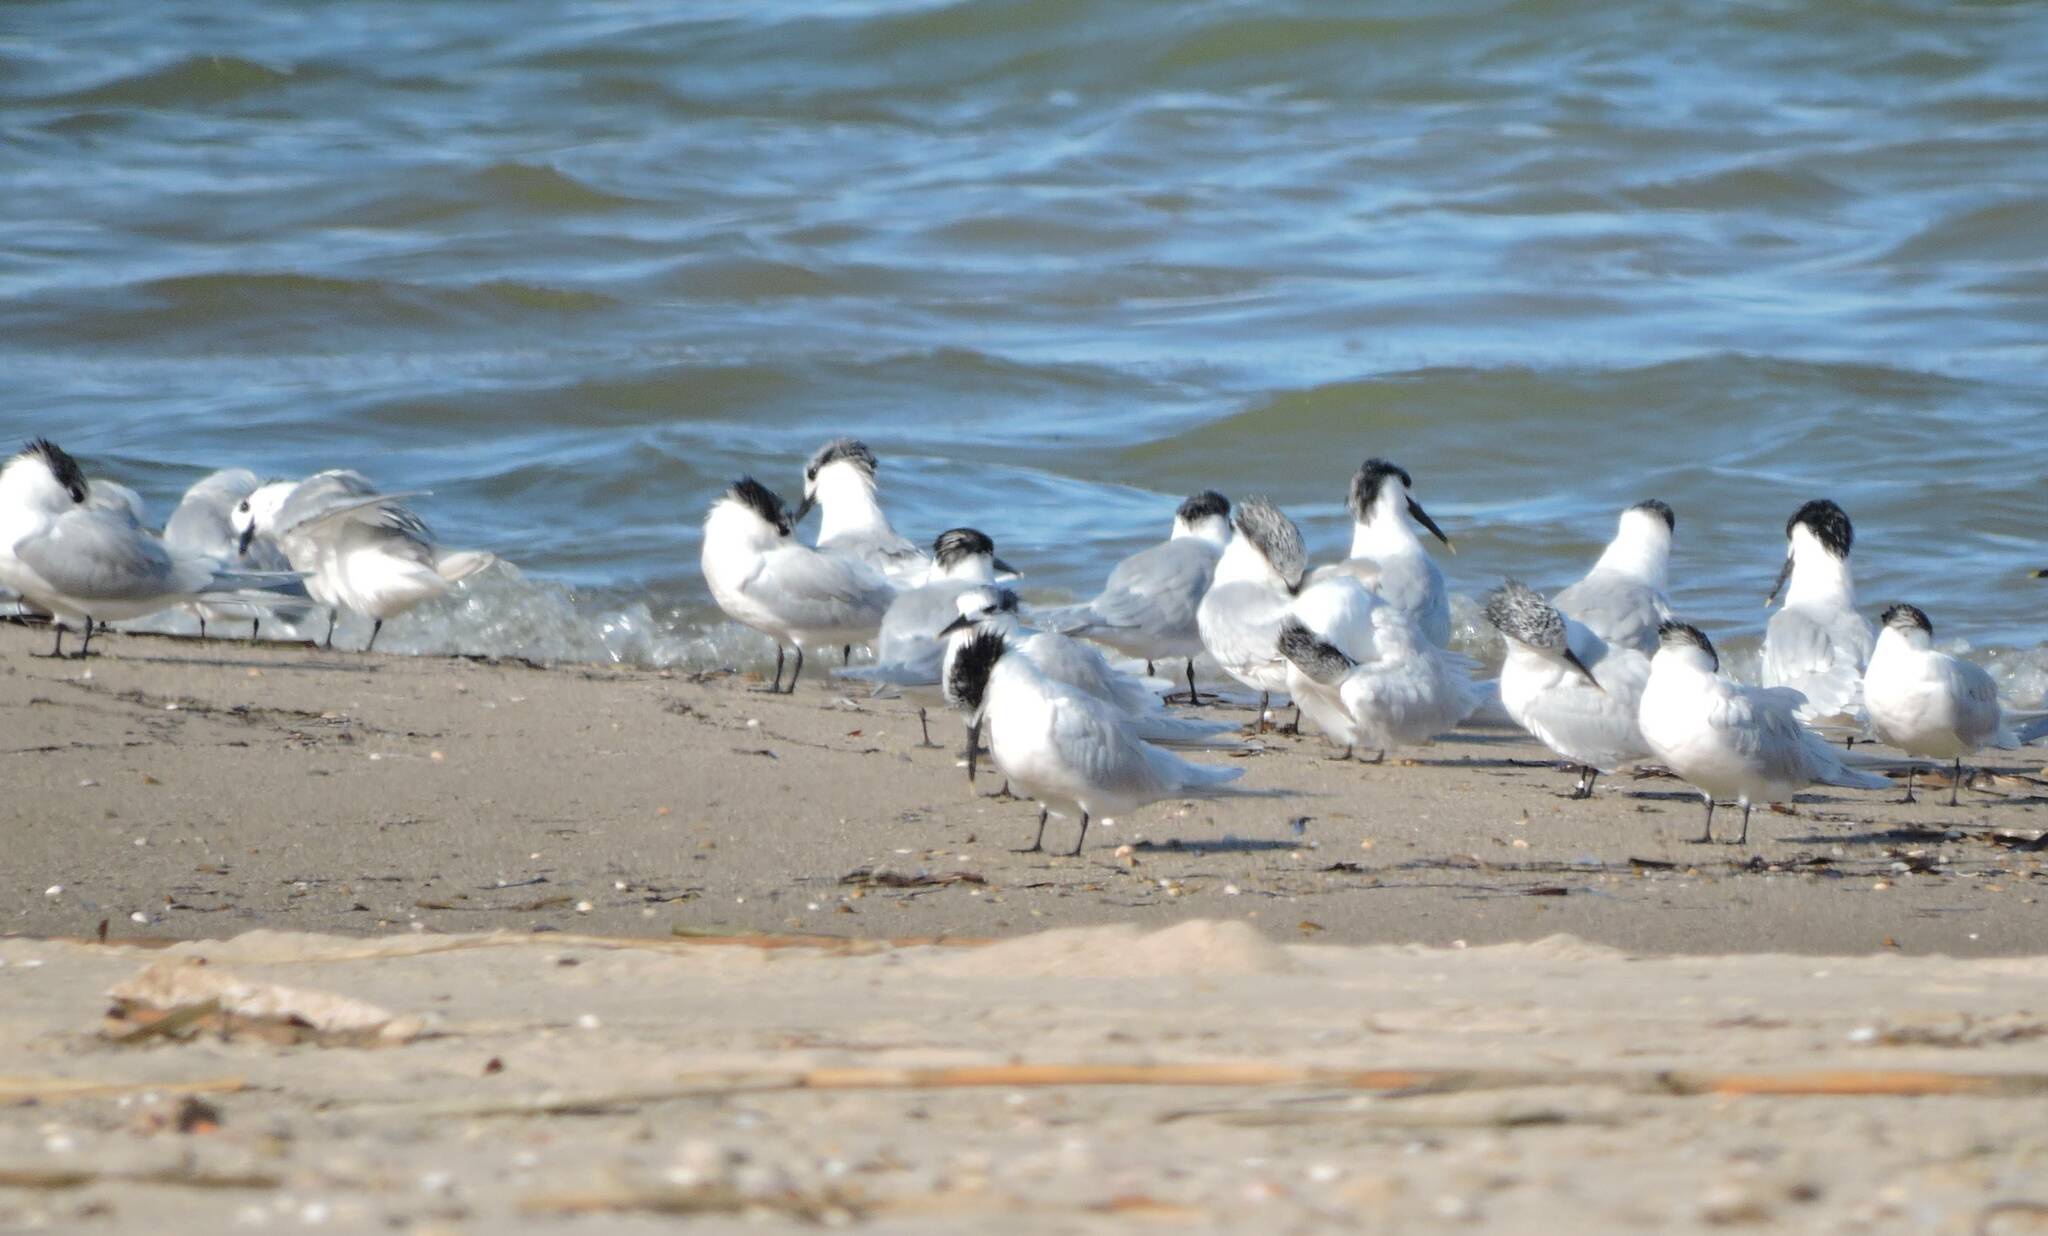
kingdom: Animalia
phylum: Chordata
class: Aves
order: Charadriiformes
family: Laridae
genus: Thalasseus
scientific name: Thalasseus sandvicensis
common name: Sandwich tern
